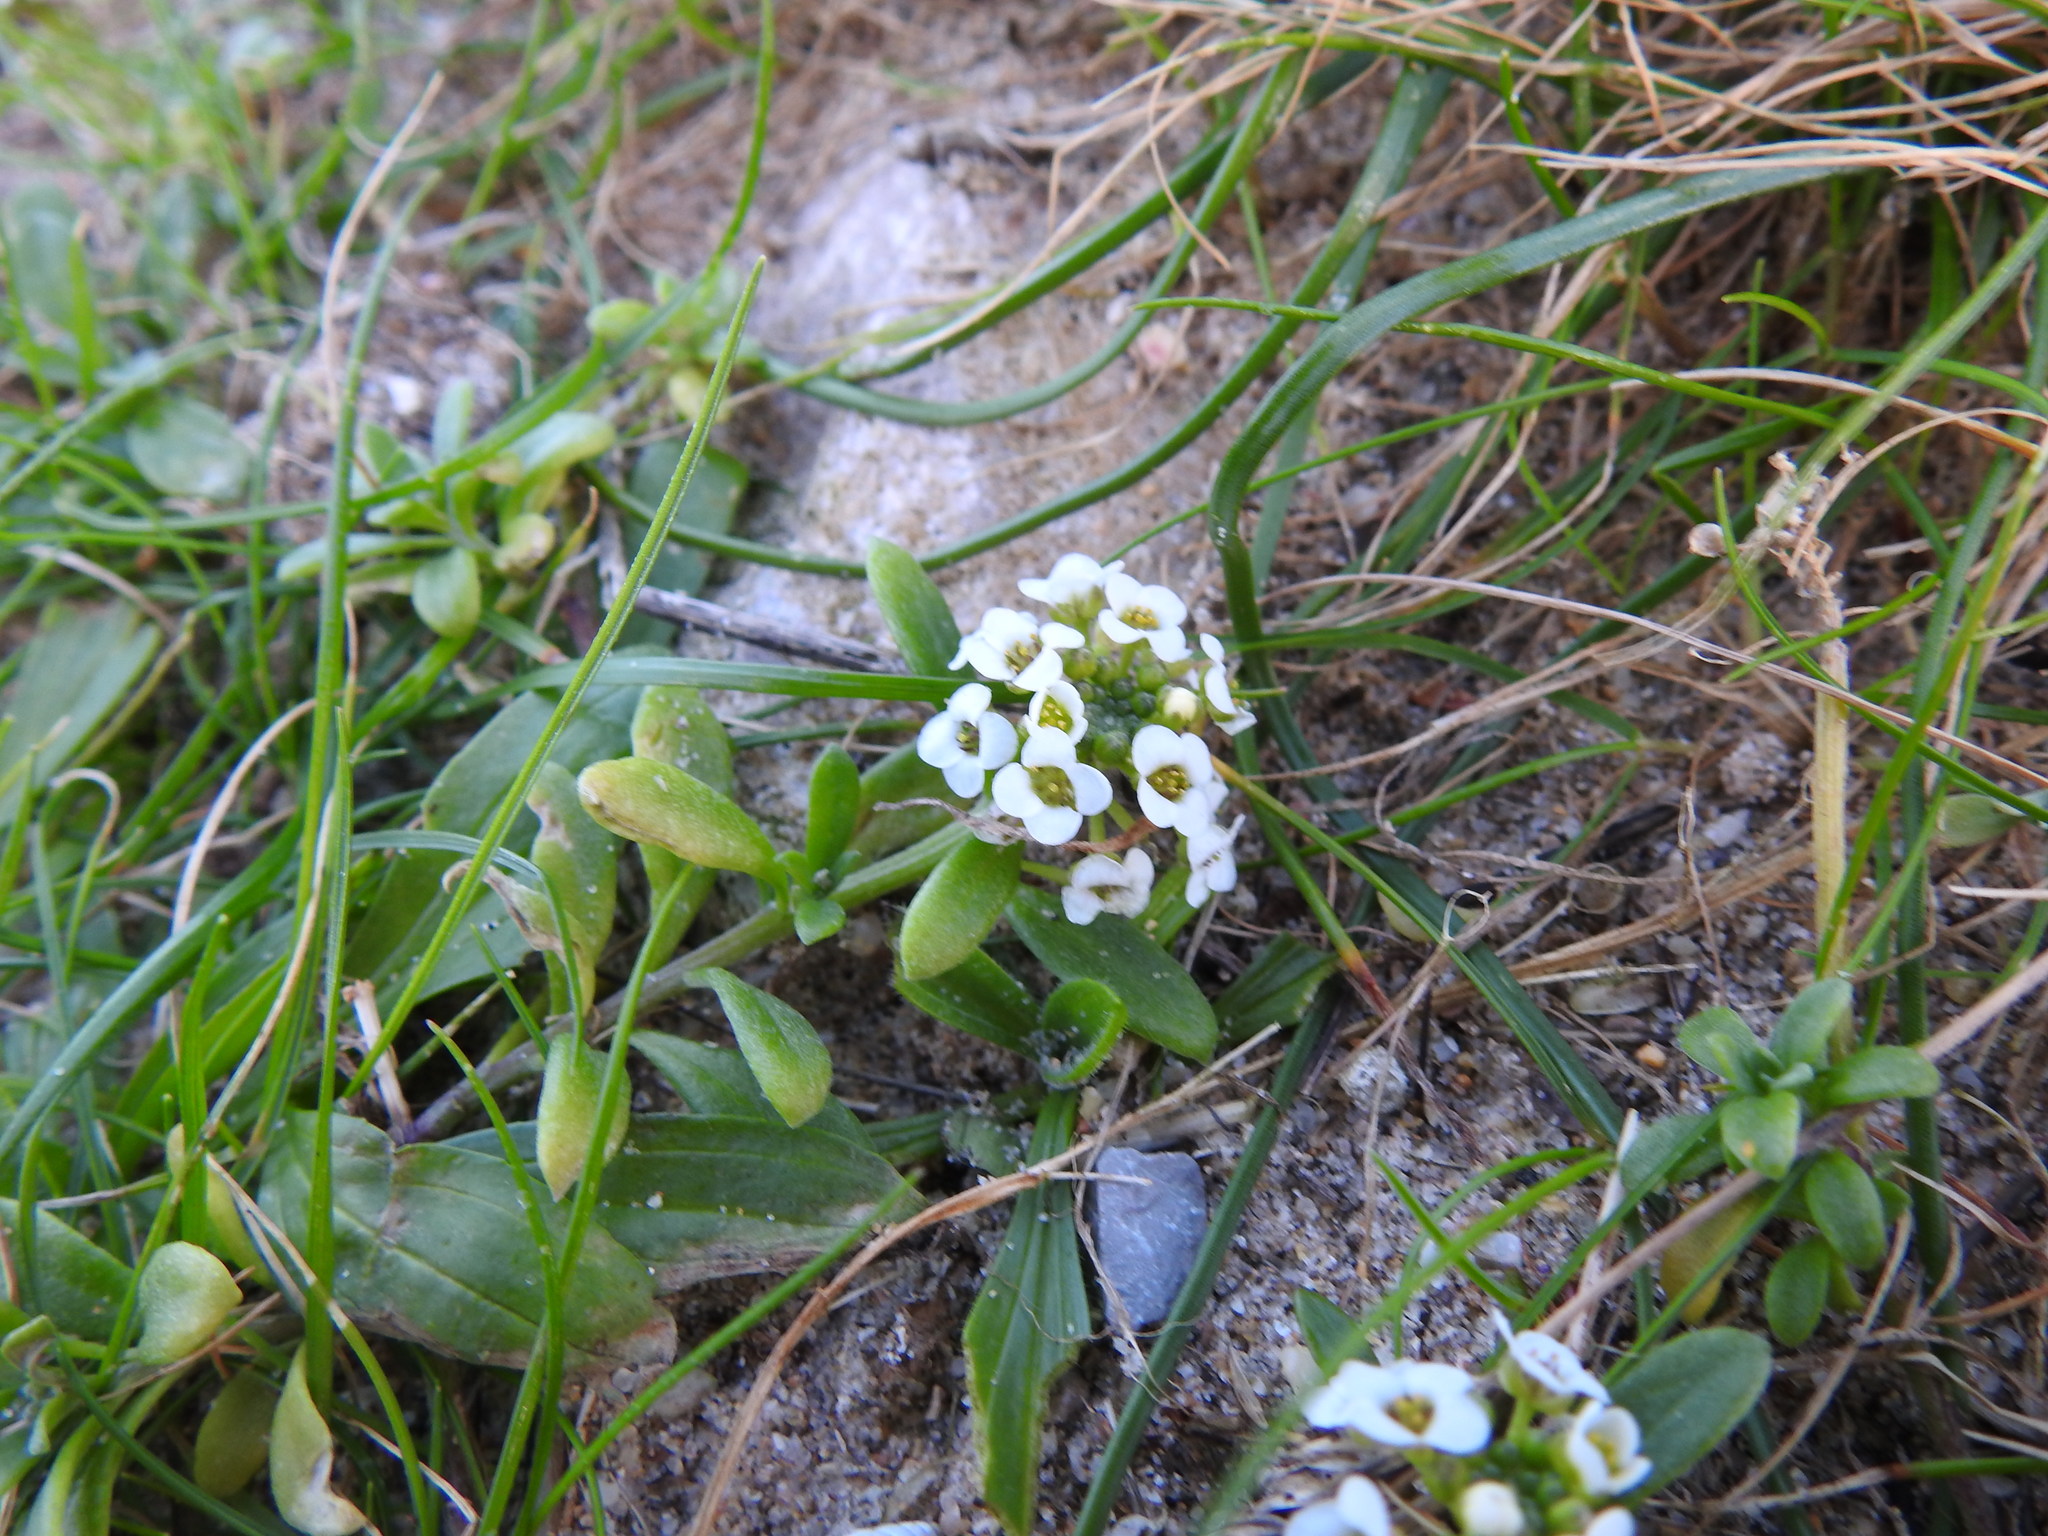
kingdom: Plantae
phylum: Tracheophyta
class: Magnoliopsida
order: Brassicales
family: Brassicaceae
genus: Lobularia
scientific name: Lobularia maritima
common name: Sweet alison
